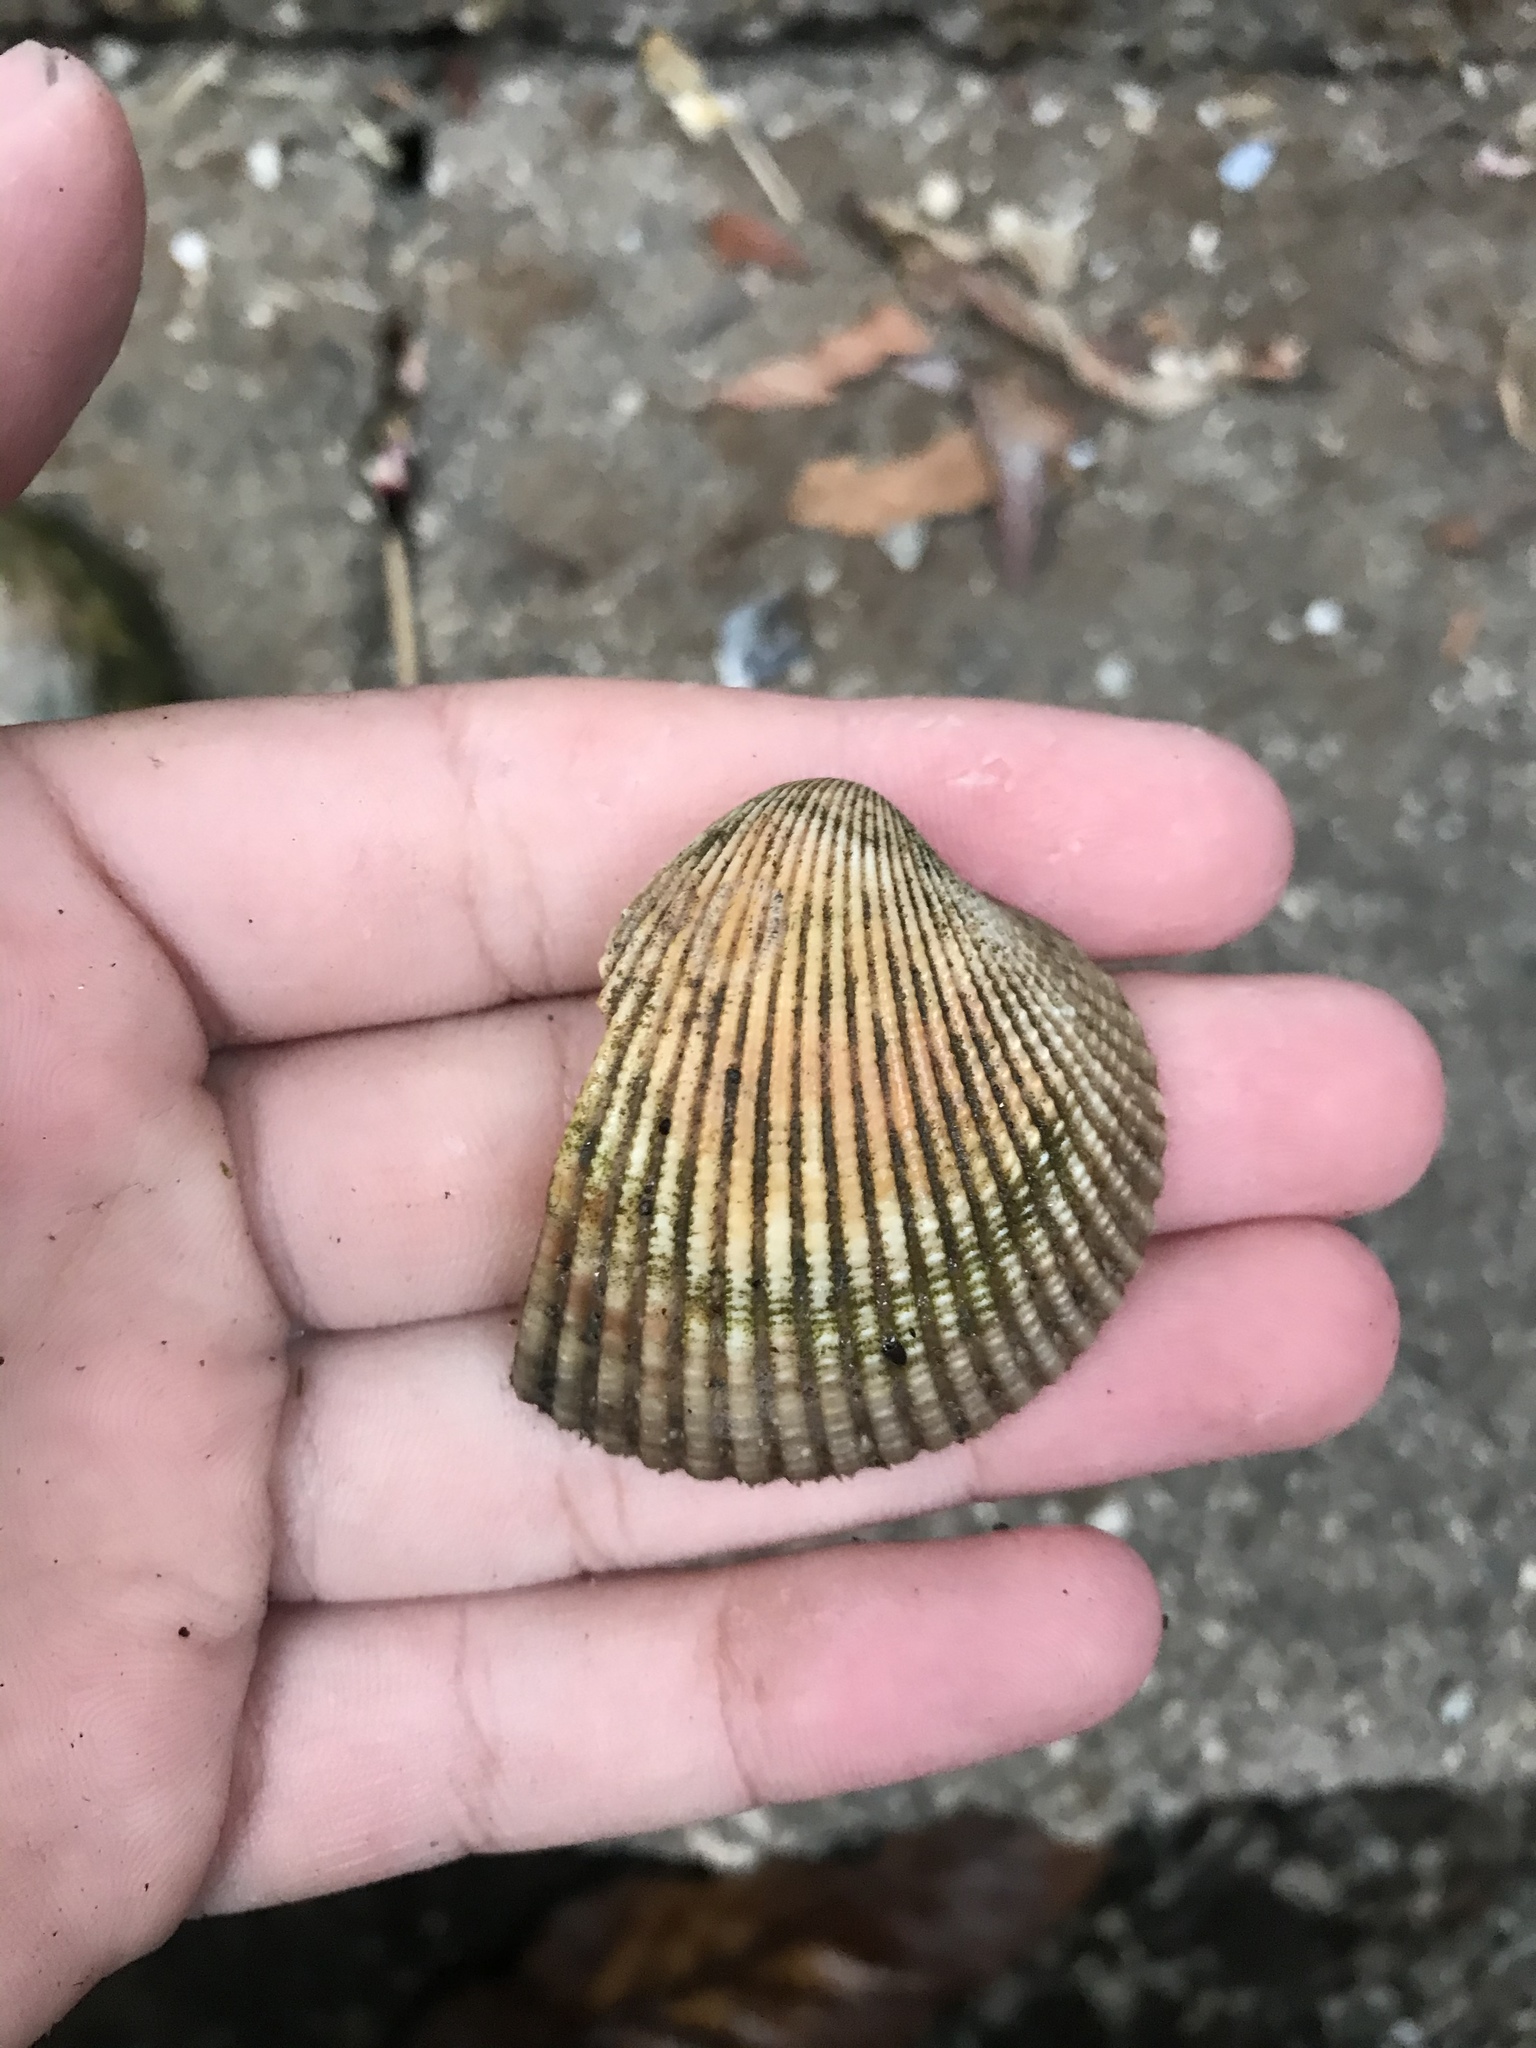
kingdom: Animalia
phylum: Mollusca
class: Bivalvia
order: Cardiida
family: Cardiidae
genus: Clinocardium
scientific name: Clinocardium nuttallii
